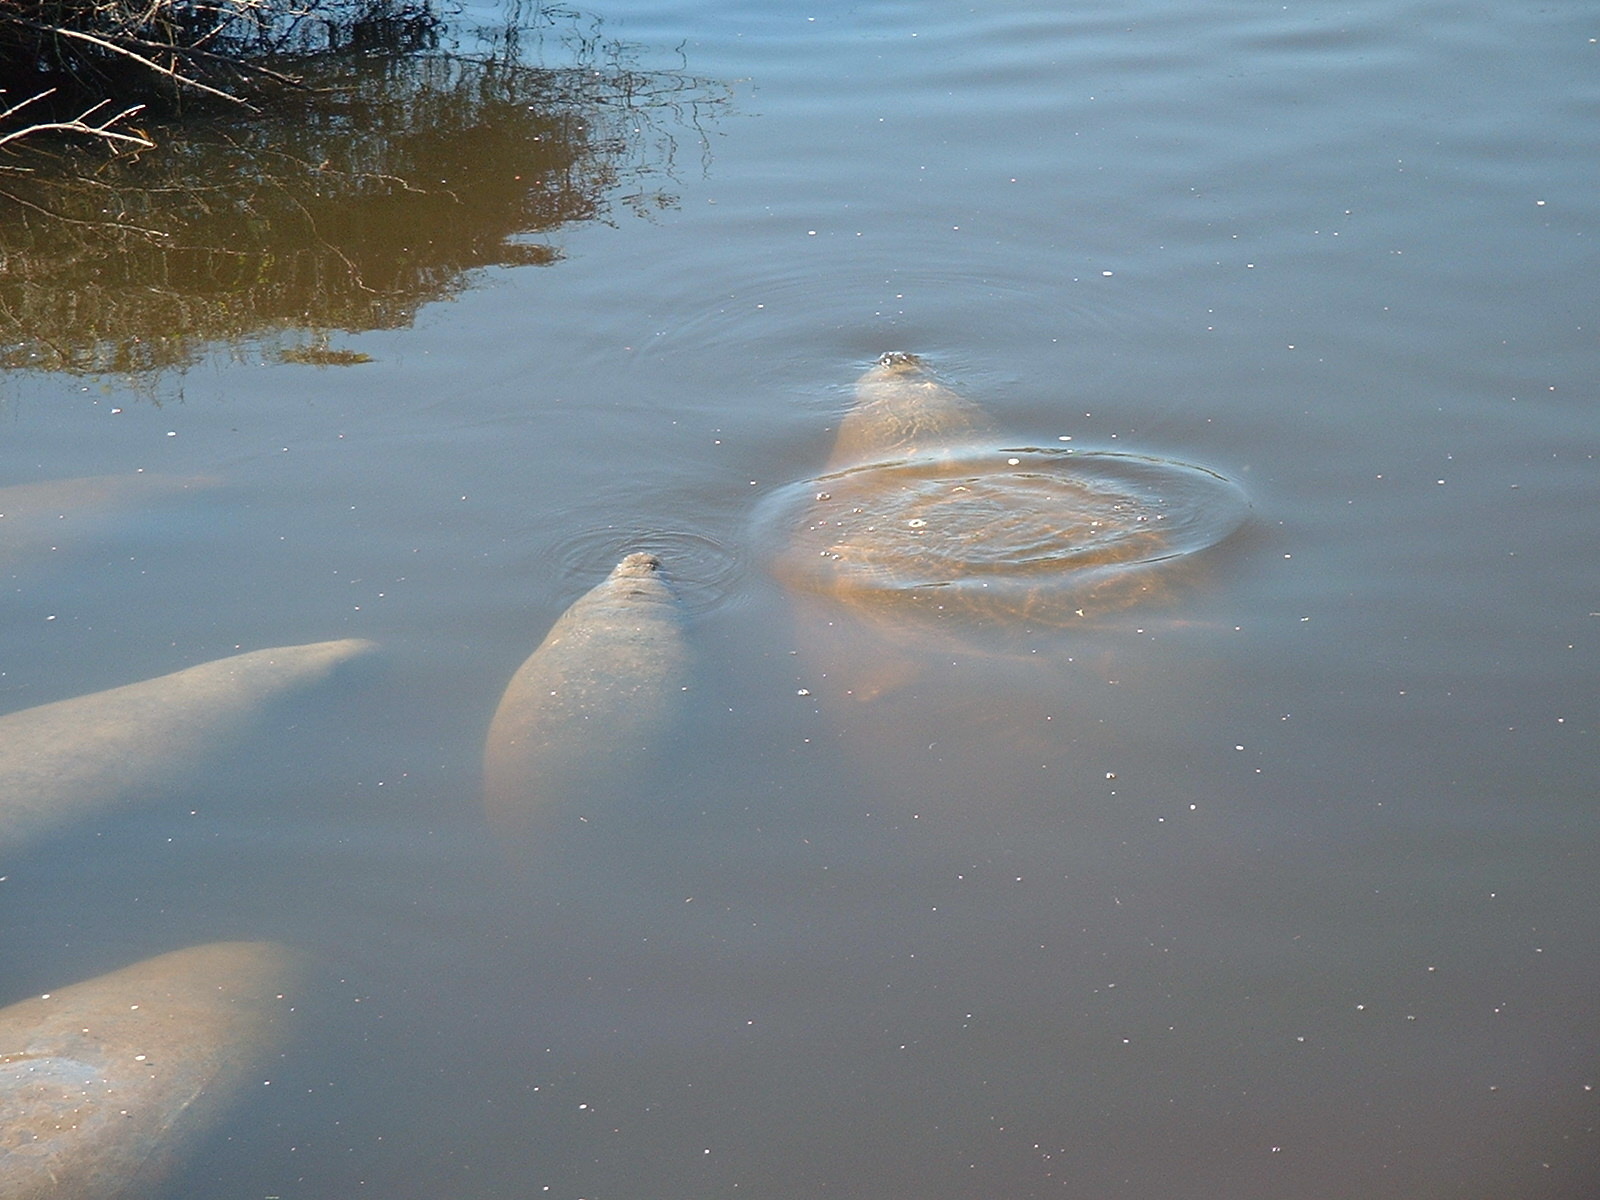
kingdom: Animalia
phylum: Chordata
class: Mammalia
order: Sirenia
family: Trichechidae
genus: Trichechus
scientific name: Trichechus manatus
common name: West indian manatee
